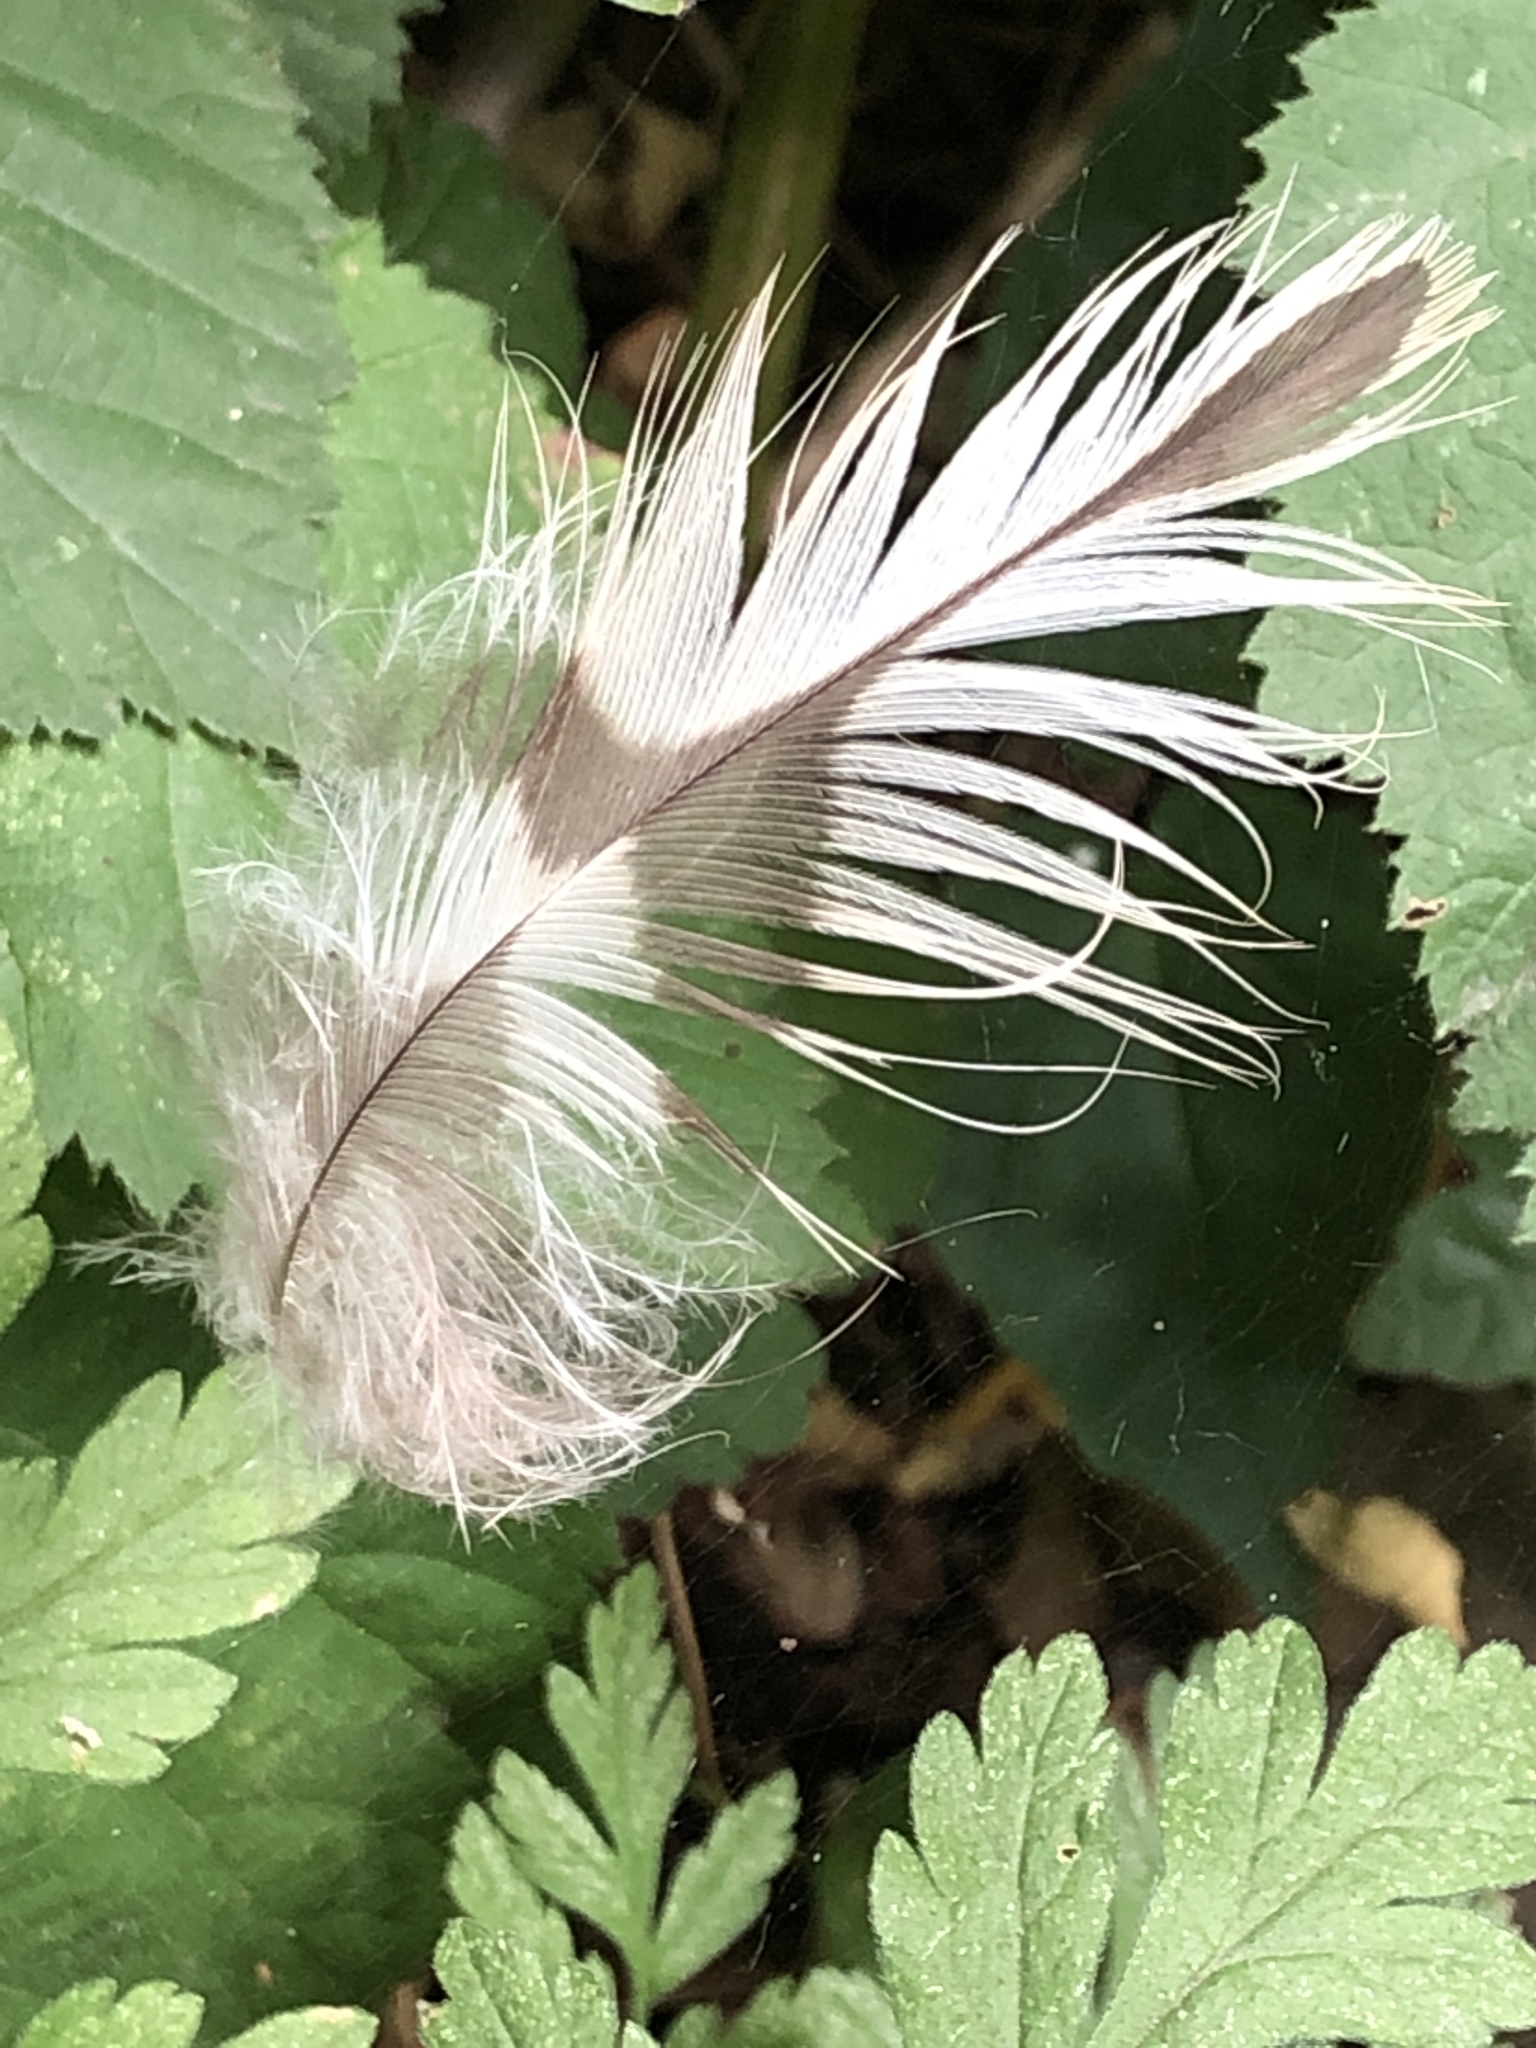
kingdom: Animalia
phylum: Chordata
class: Aves
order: Accipitriformes
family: Accipitridae
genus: Buteo
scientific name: Buteo buteo
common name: Common buzzard
